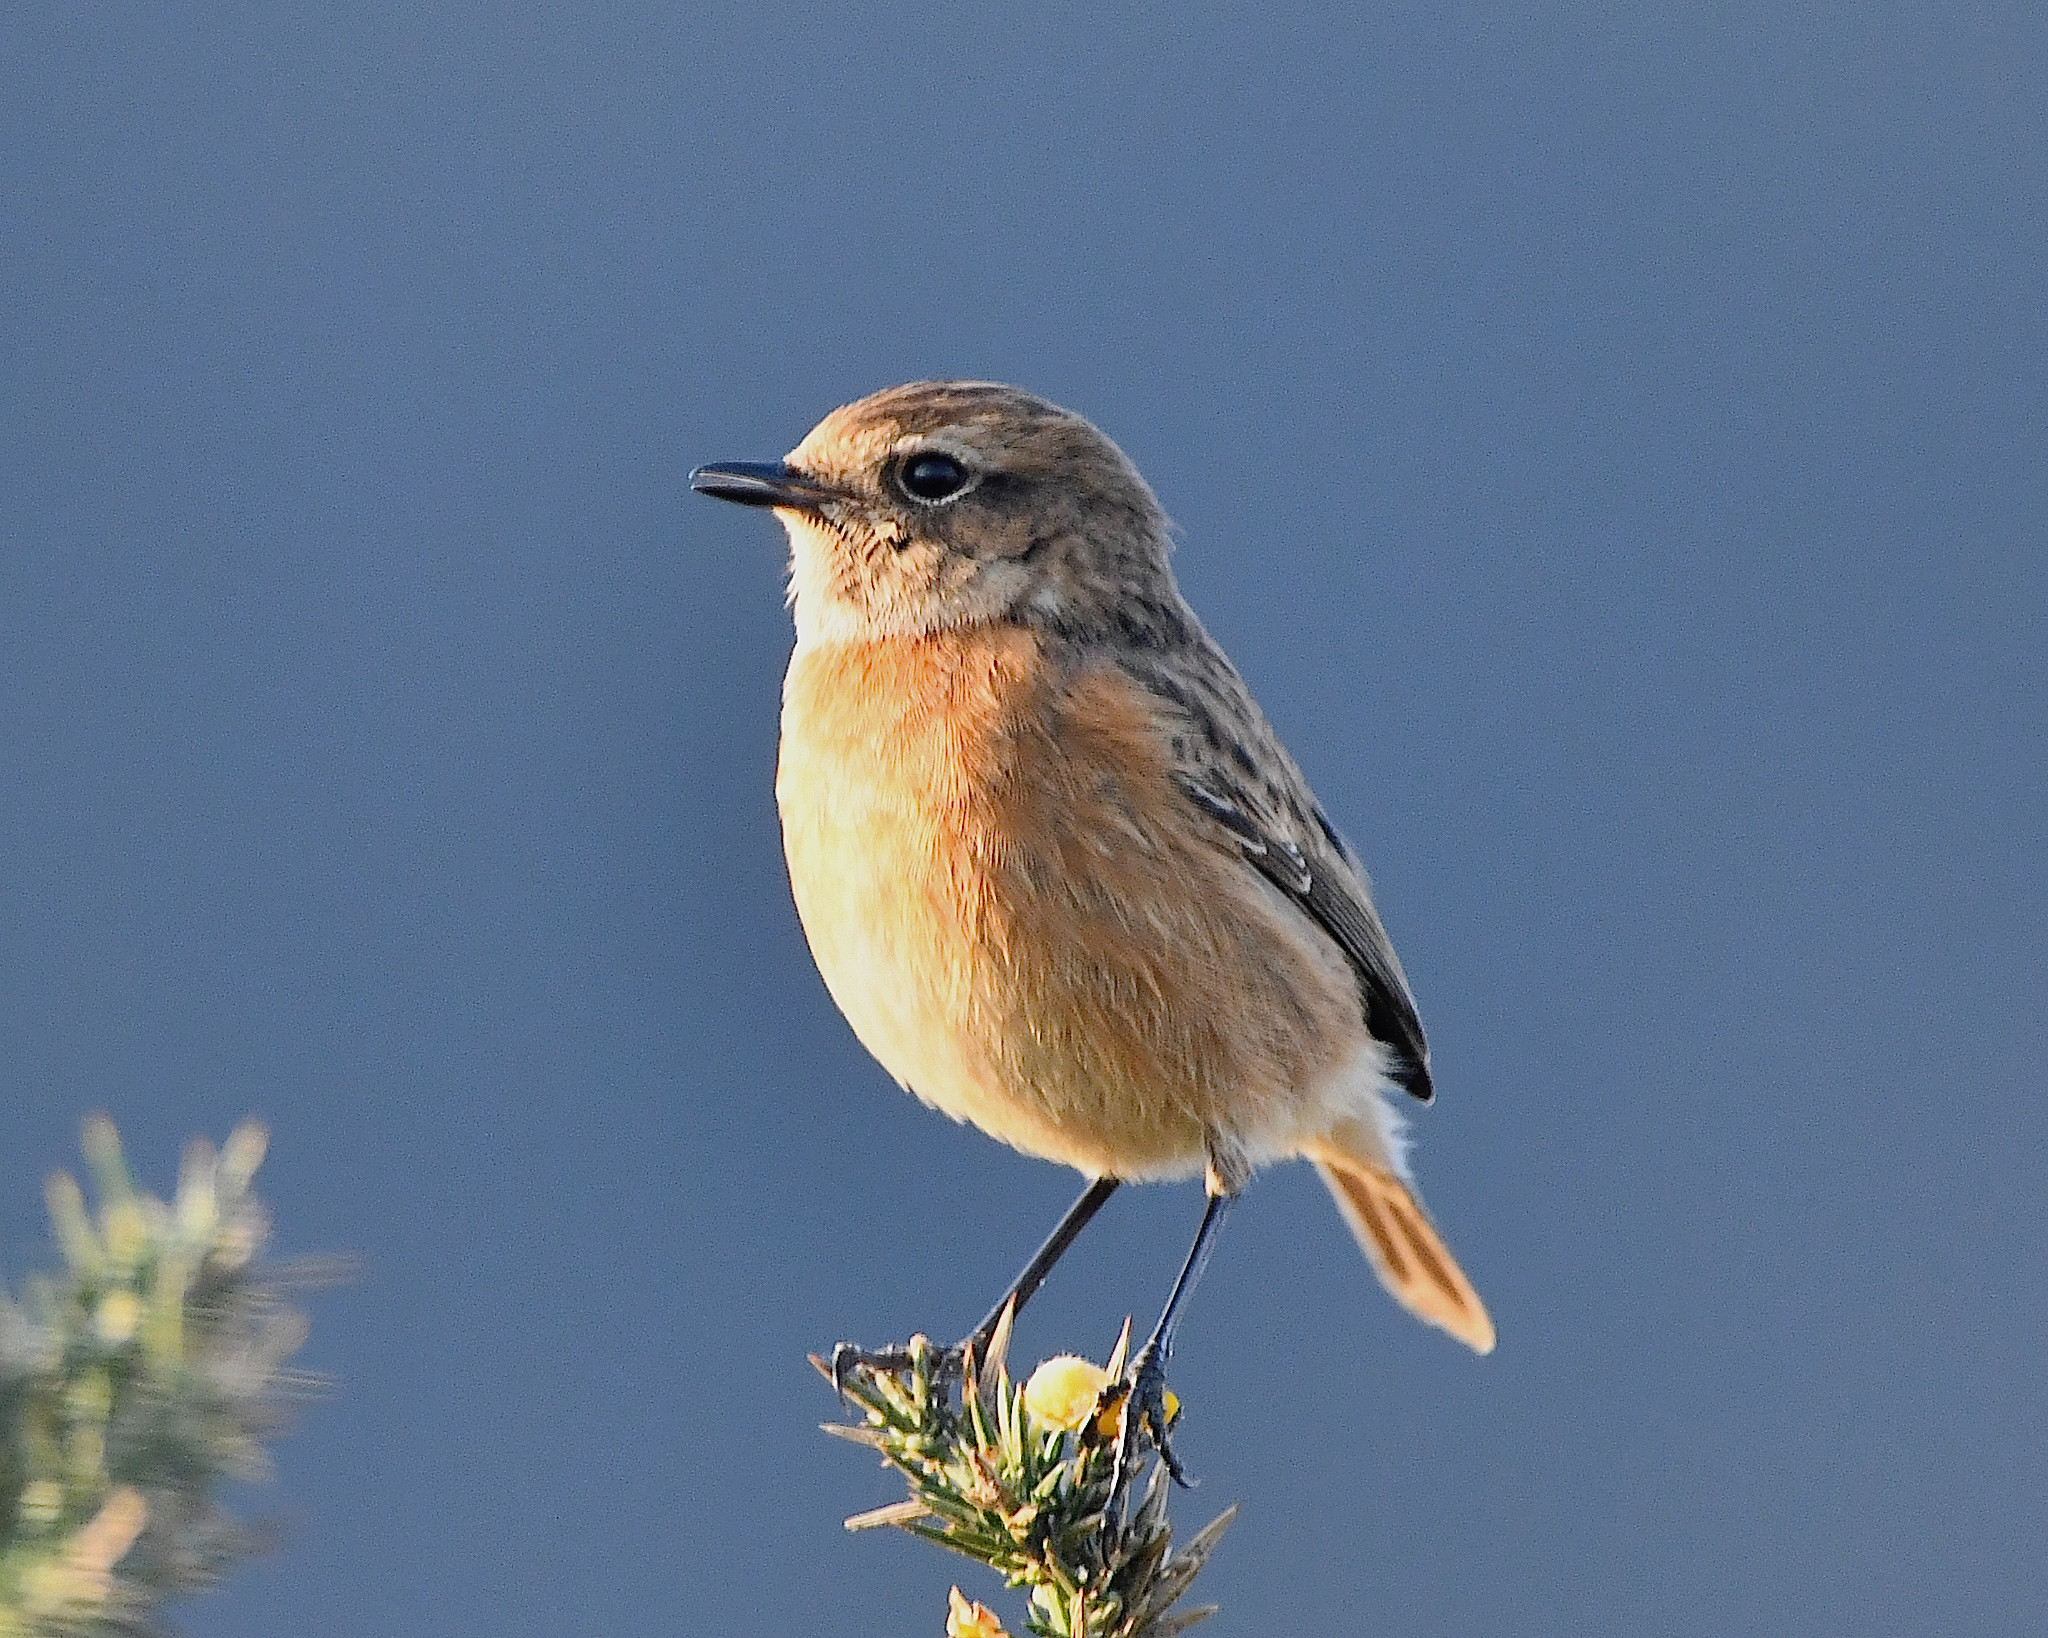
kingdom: Animalia
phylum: Chordata
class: Aves
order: Passeriformes
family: Muscicapidae
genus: Saxicola
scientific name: Saxicola rubicola
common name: European stonechat
